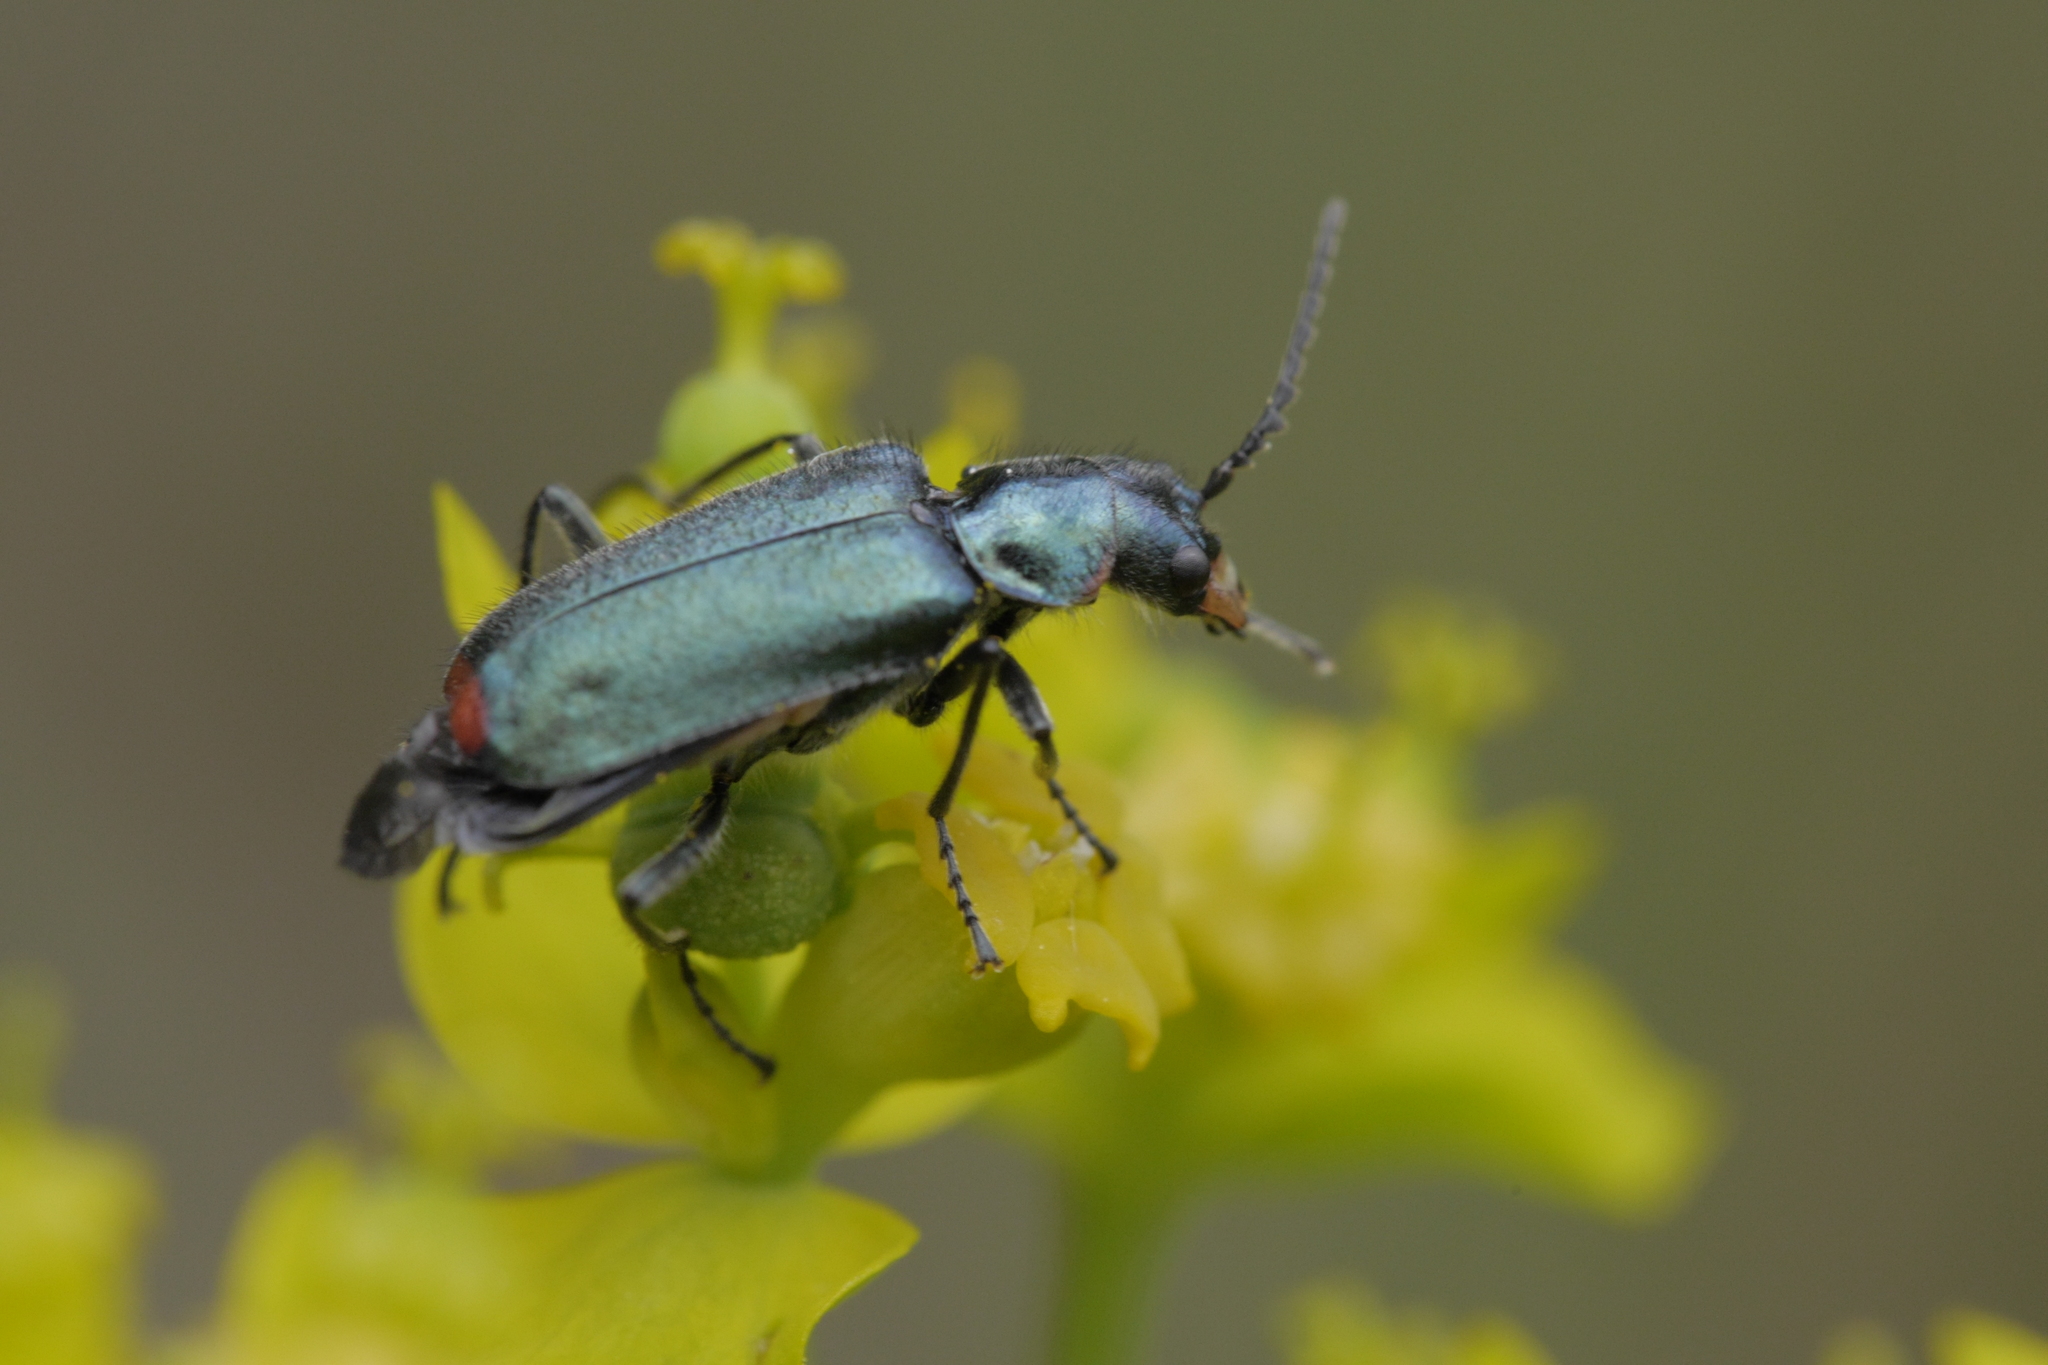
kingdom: Animalia
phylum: Arthropoda
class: Insecta
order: Coleoptera
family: Melyridae
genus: Malachius
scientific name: Malachius bipustulatus
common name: Malachite beetle
